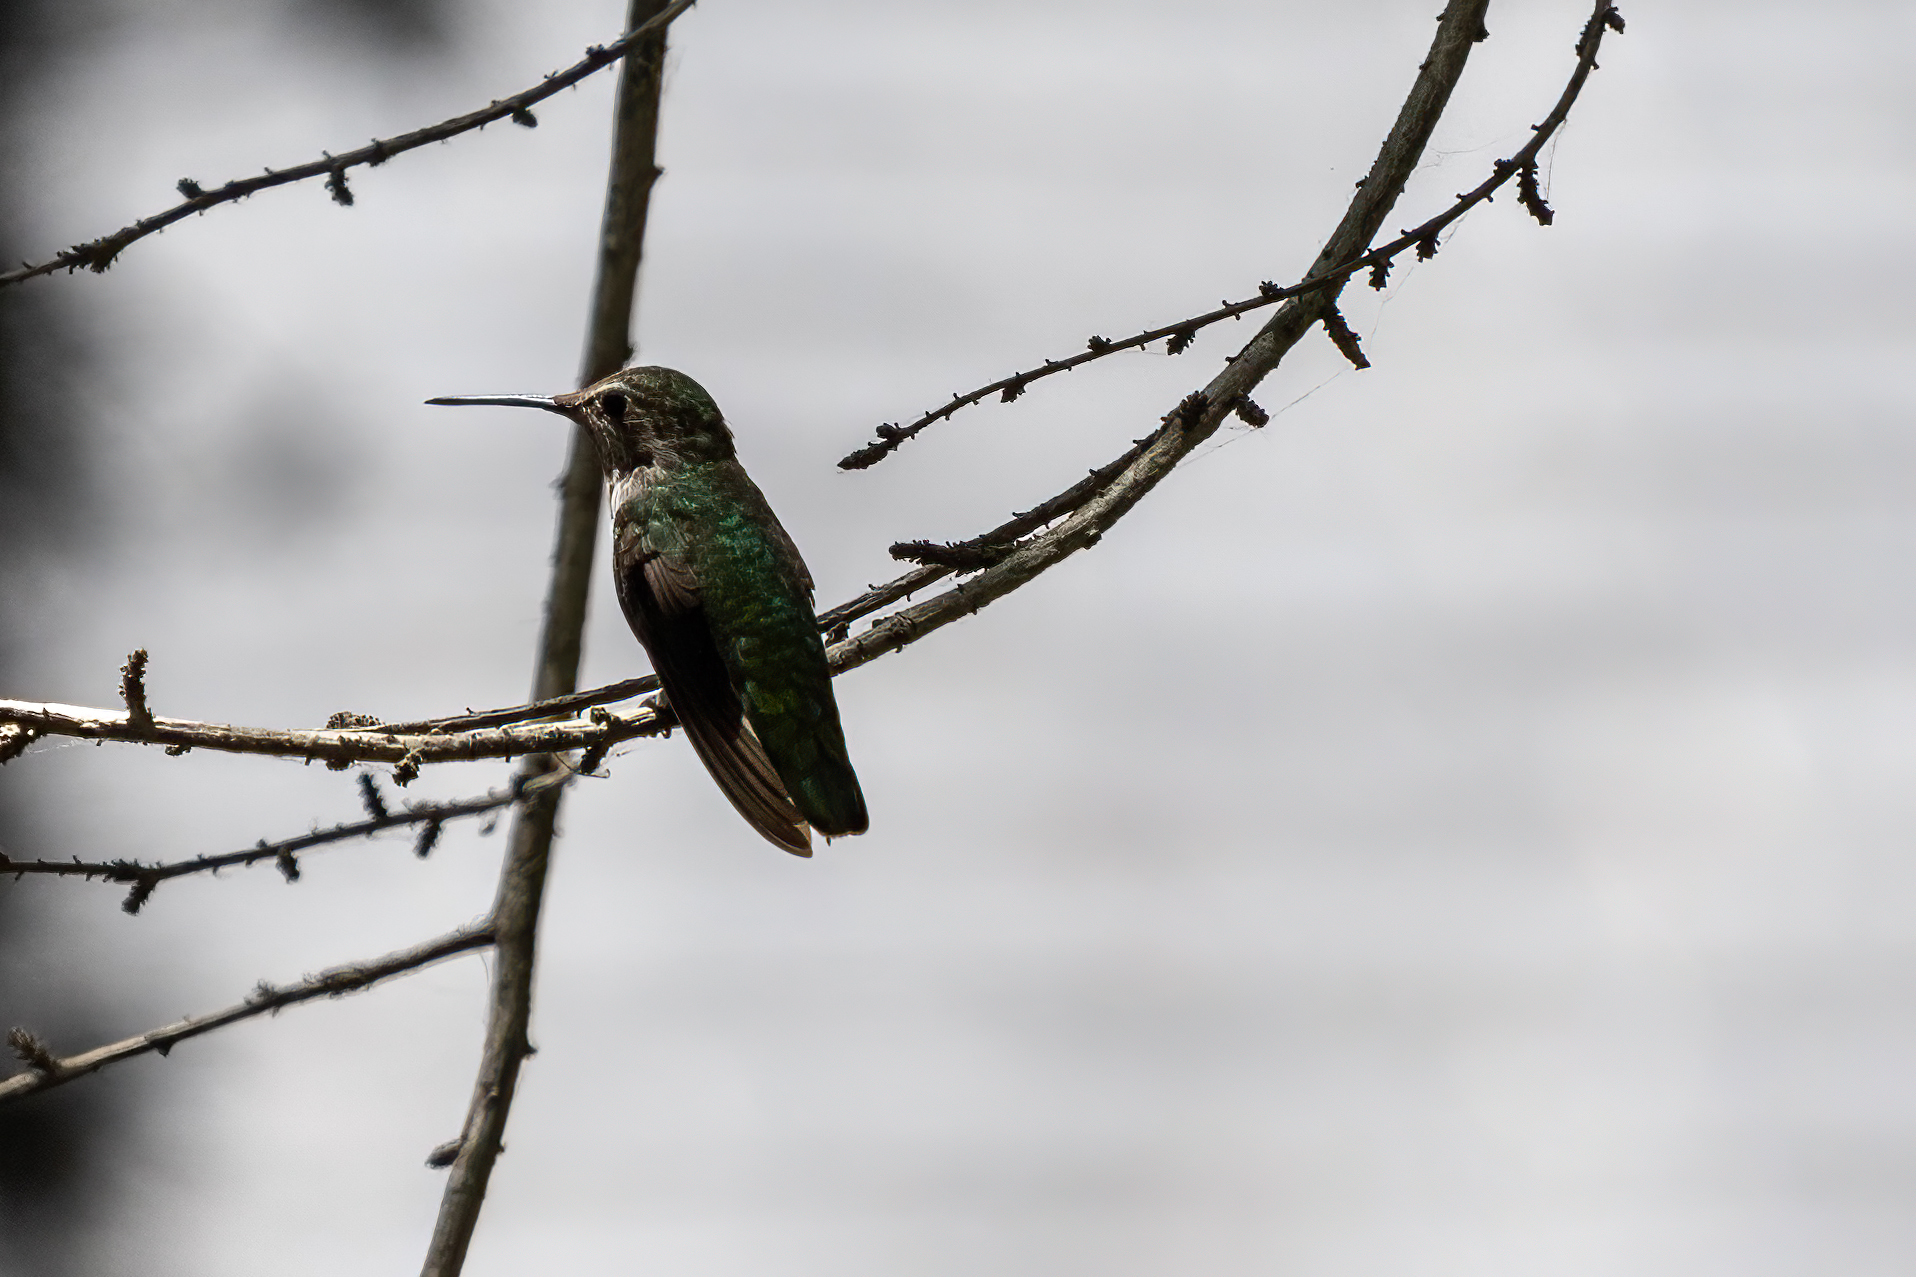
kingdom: Animalia
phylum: Chordata
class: Aves
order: Apodiformes
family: Trochilidae
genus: Calypte
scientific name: Calypte anna
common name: Anna's hummingbird
